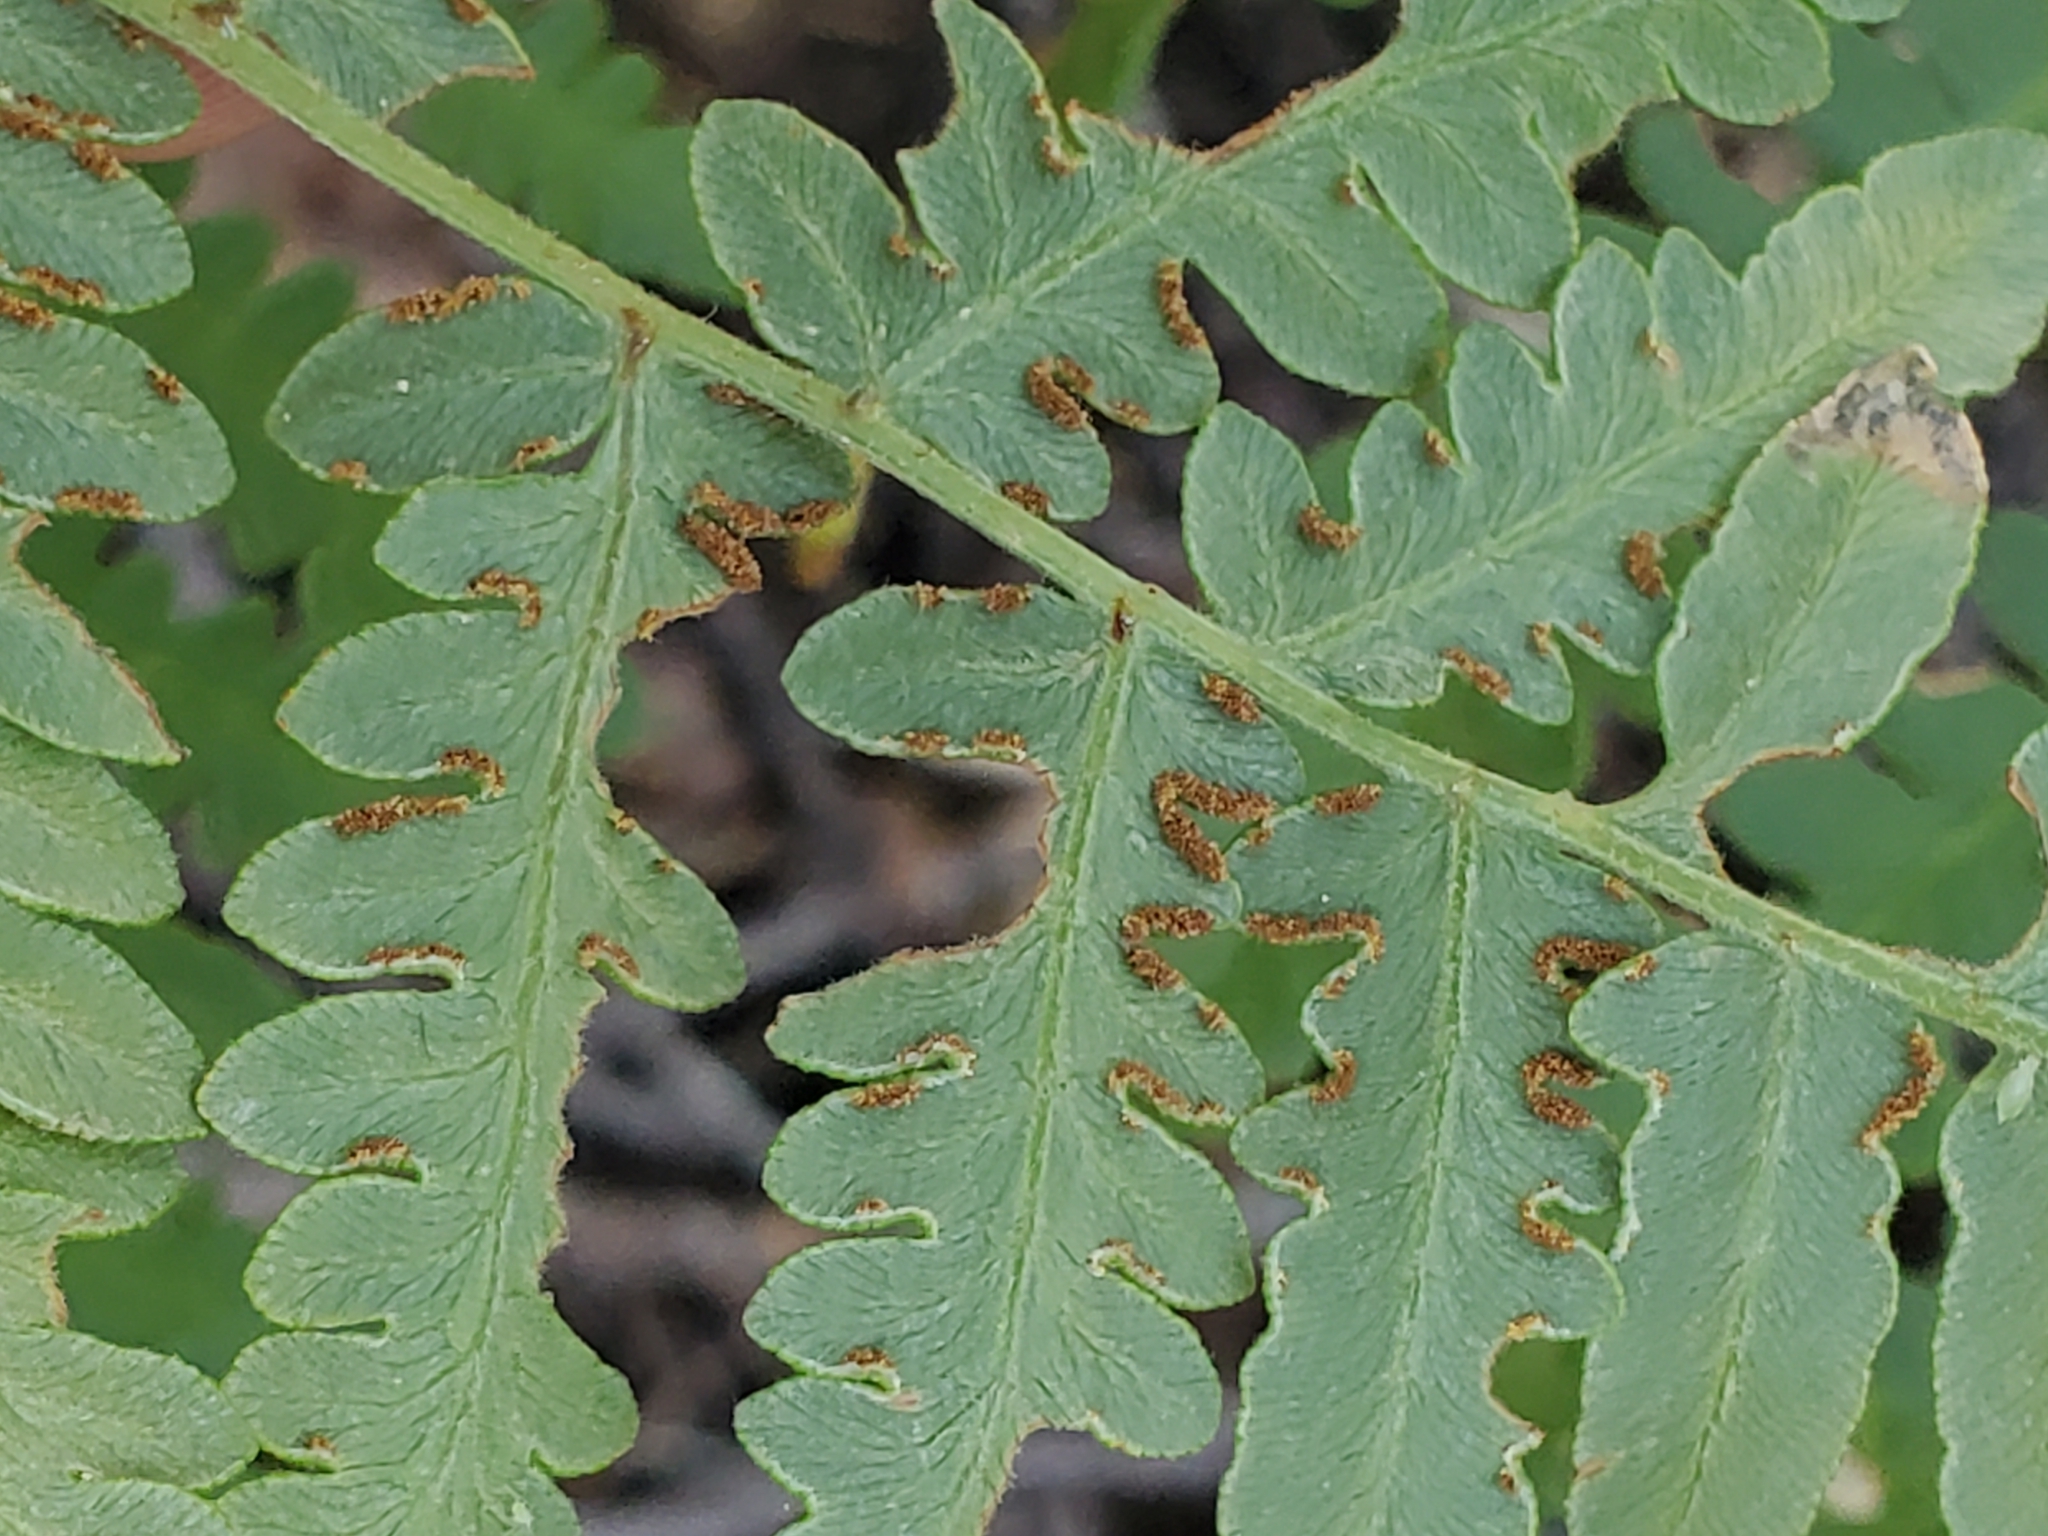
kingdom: Plantae
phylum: Tracheophyta
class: Polypodiopsida
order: Polypodiales
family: Dennstaedtiaceae
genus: Pteridium
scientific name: Pteridium aquilinum
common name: Bracken
